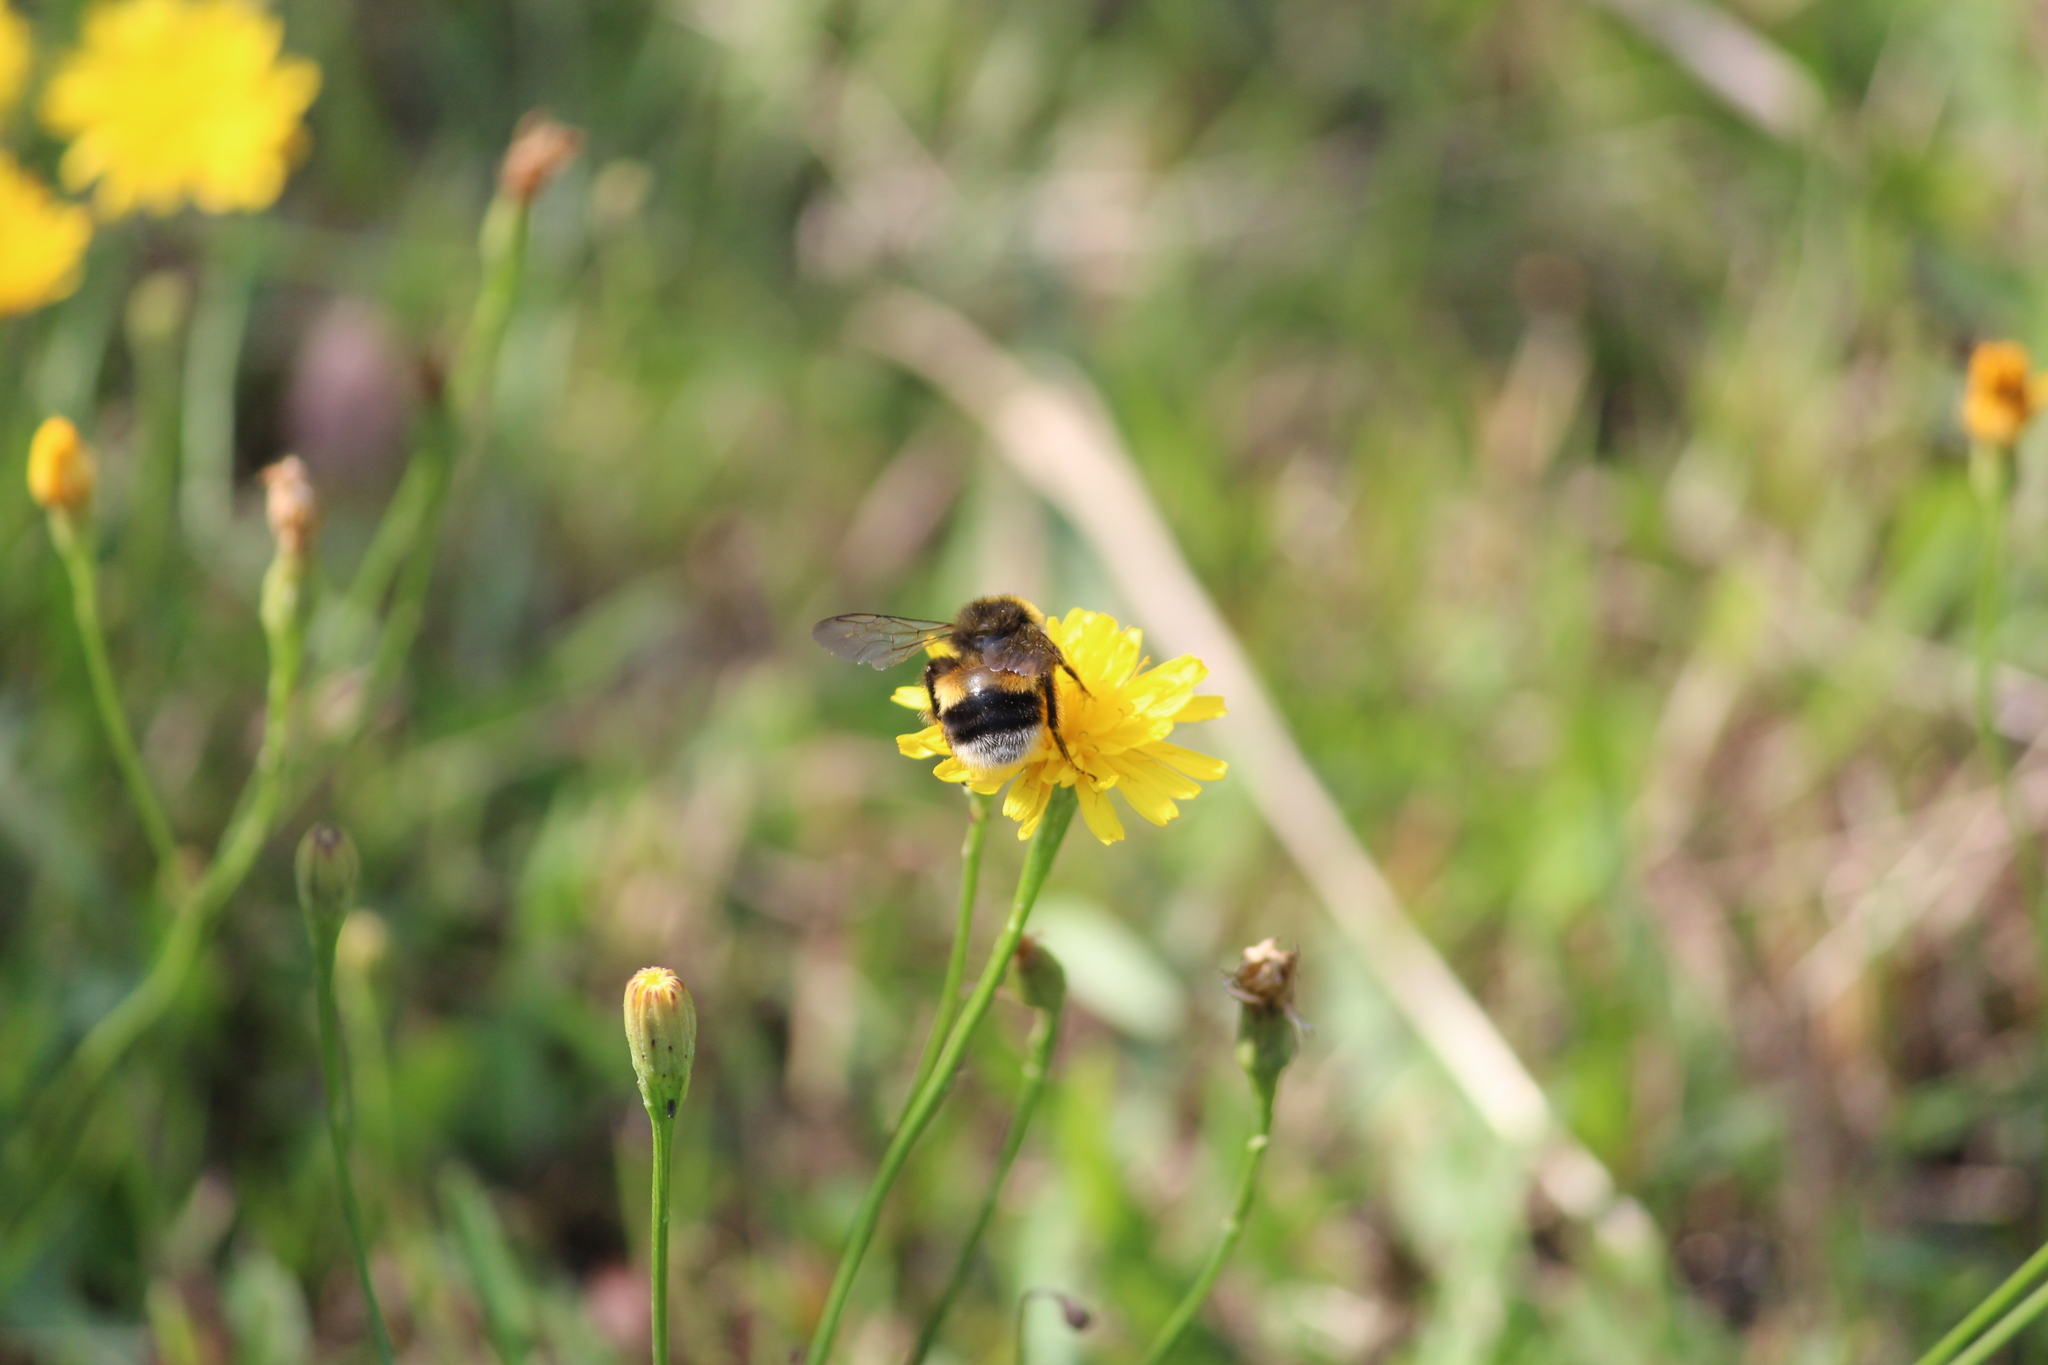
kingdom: Animalia
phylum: Arthropoda
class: Insecta
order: Hymenoptera
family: Apidae
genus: Bombus
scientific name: Bombus
